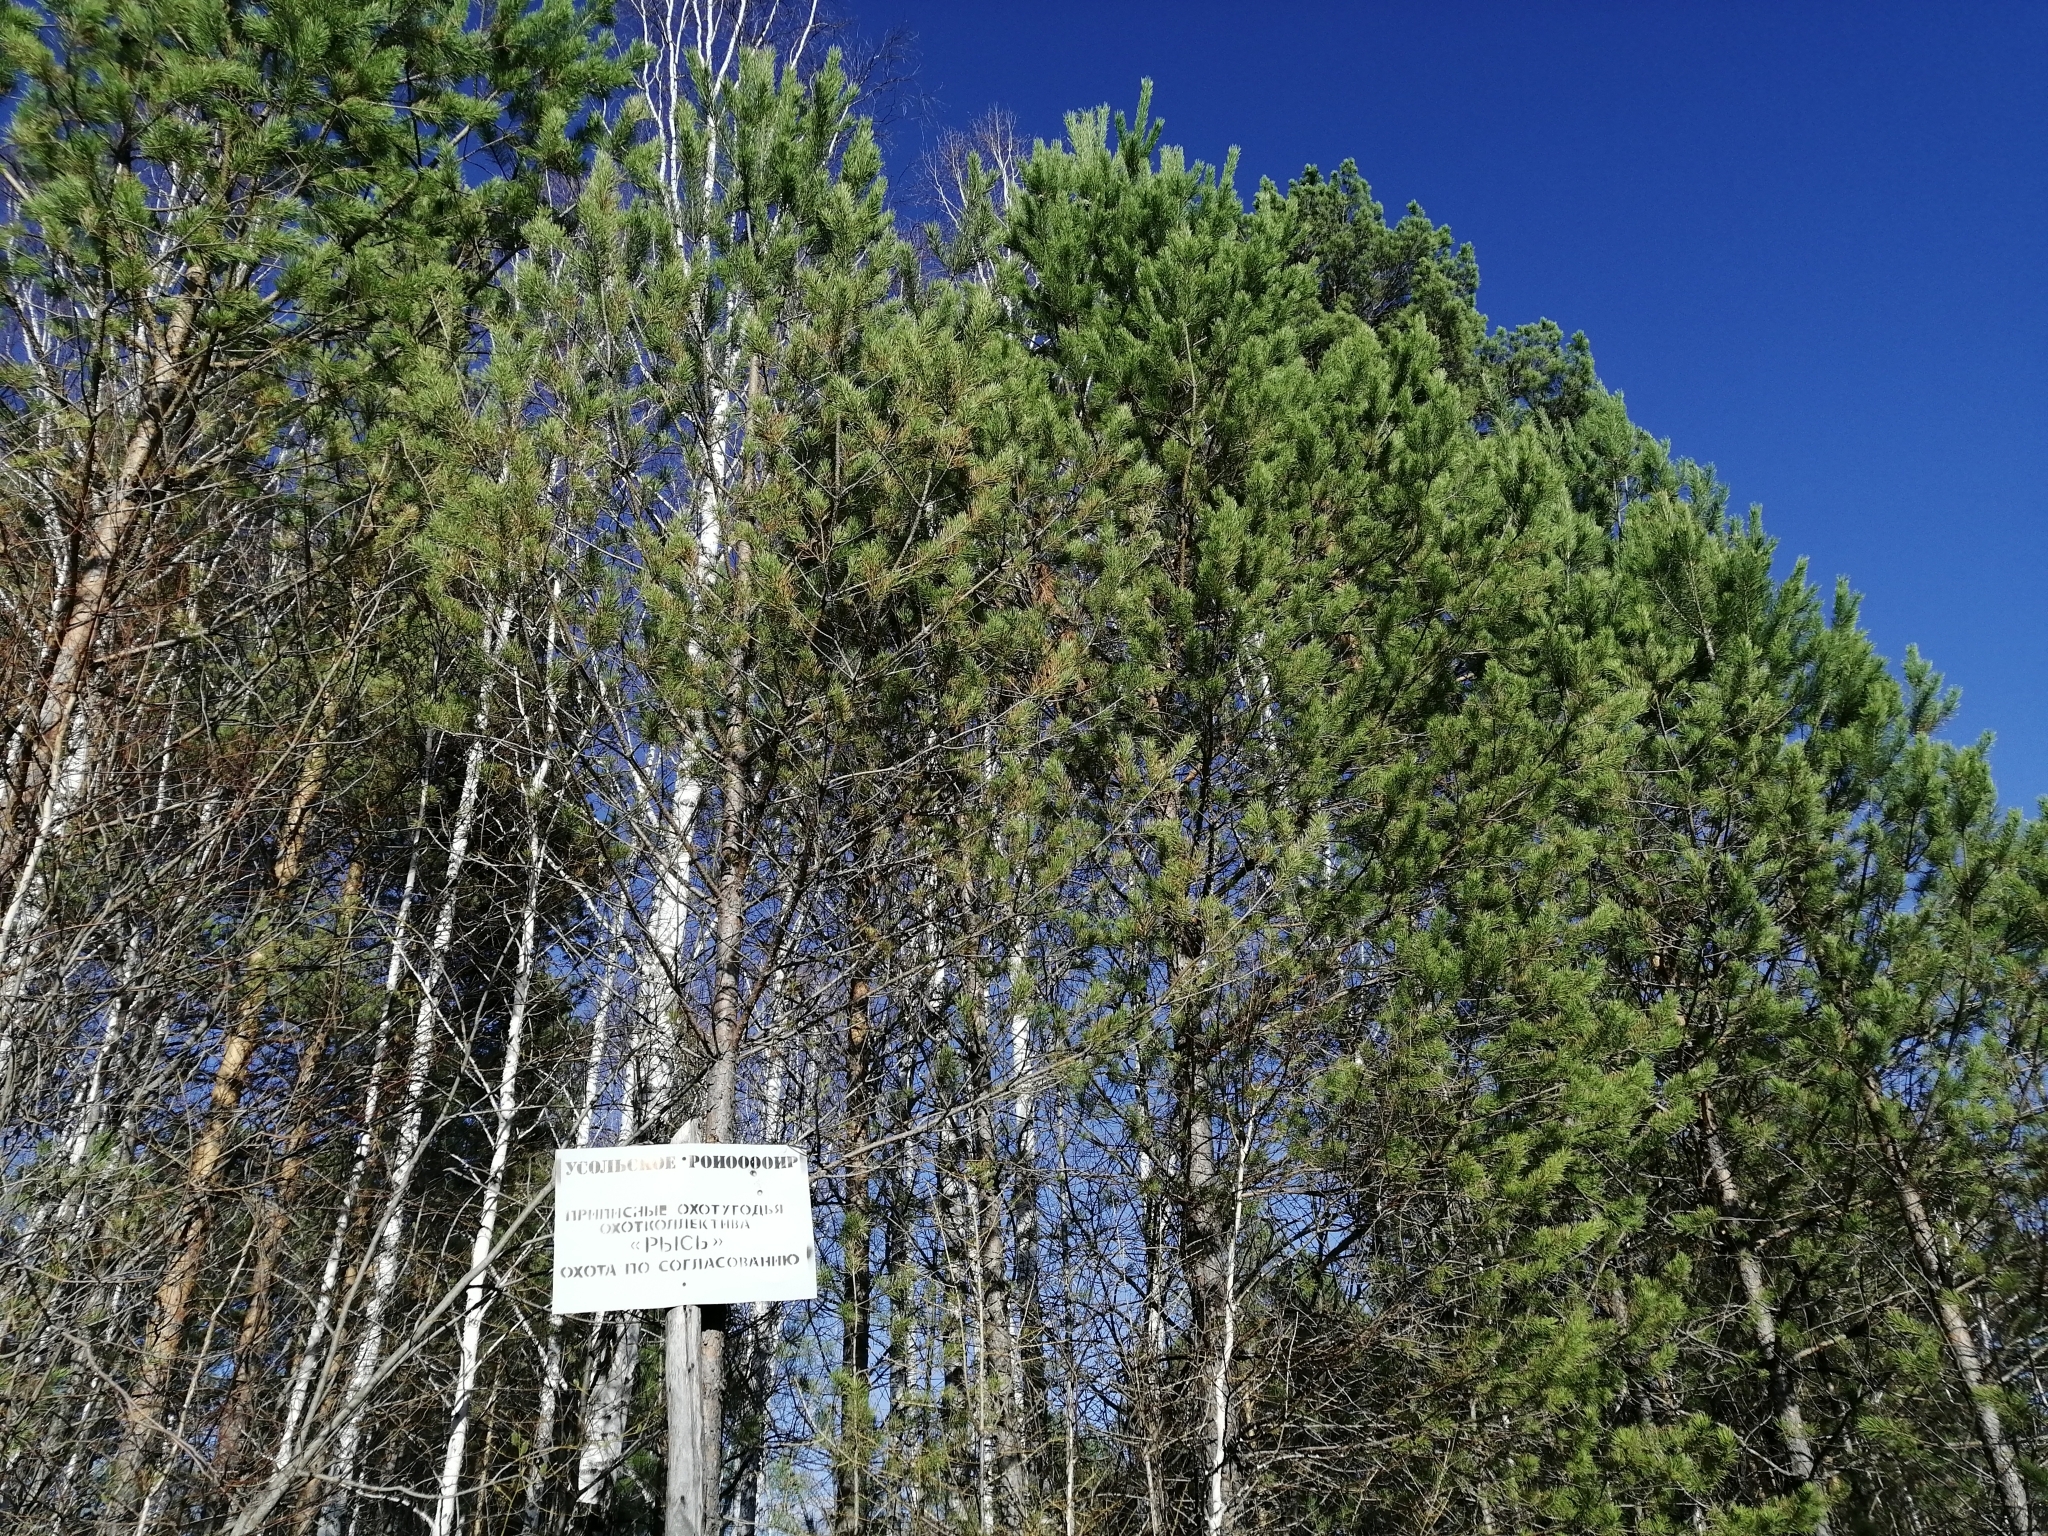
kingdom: Plantae
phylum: Tracheophyta
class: Pinopsida
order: Pinales
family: Pinaceae
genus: Pinus
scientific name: Pinus sylvestris
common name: Scots pine
